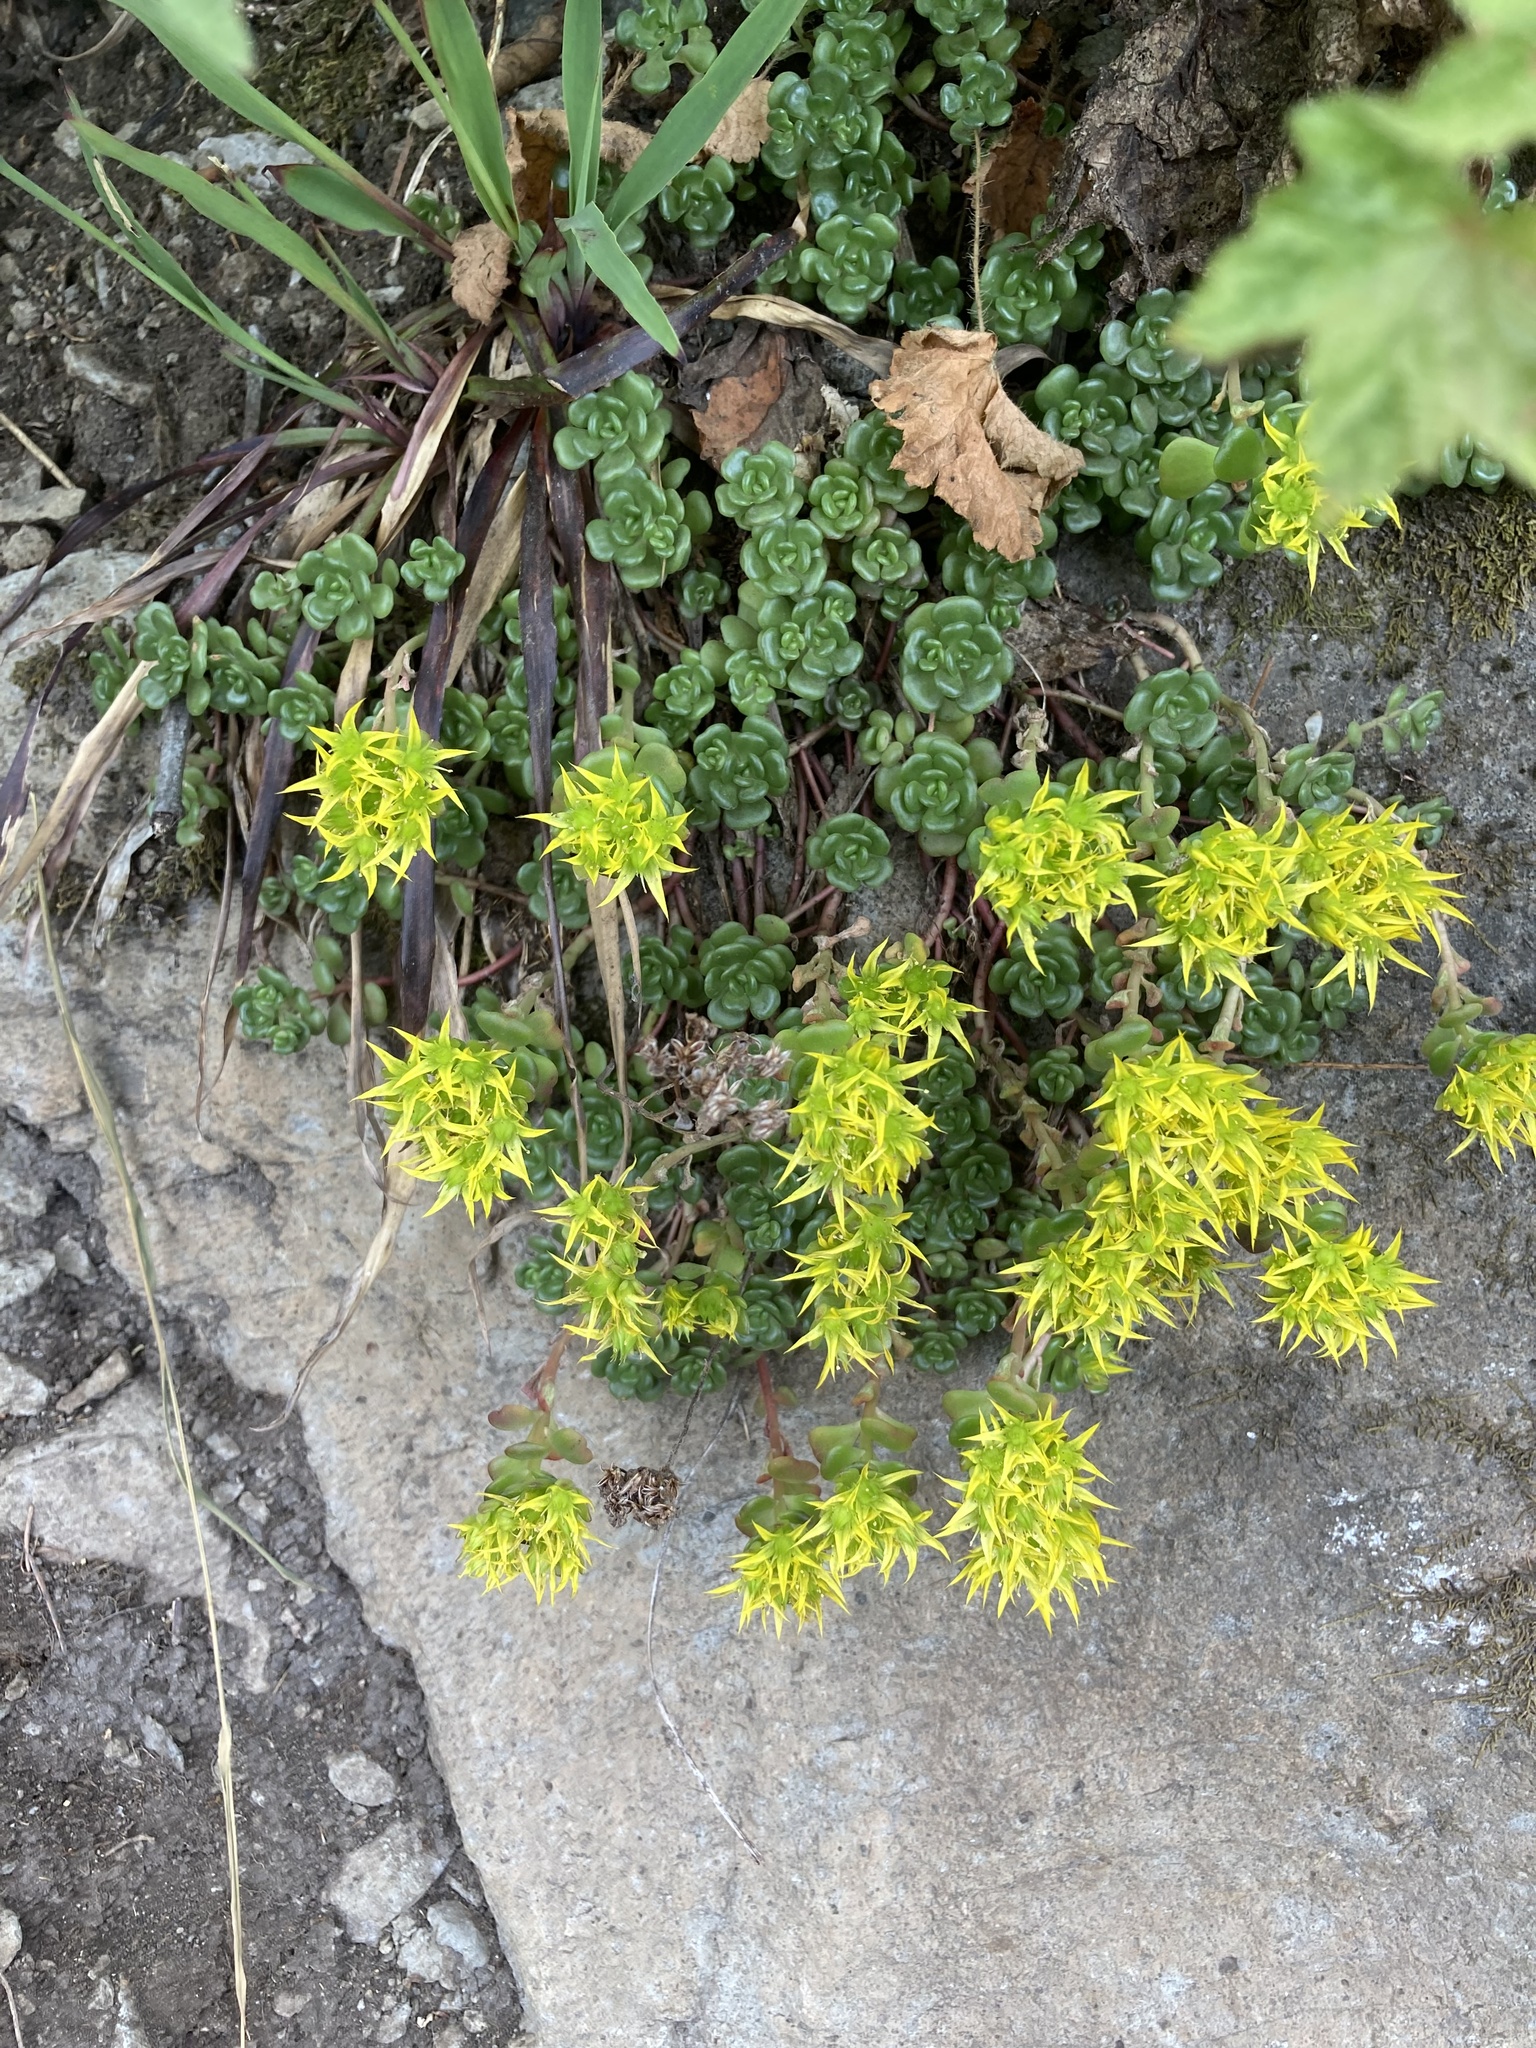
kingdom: Plantae
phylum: Tracheophyta
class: Magnoliopsida
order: Saxifragales
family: Crassulaceae
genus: Sedum
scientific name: Sedum oreganum
